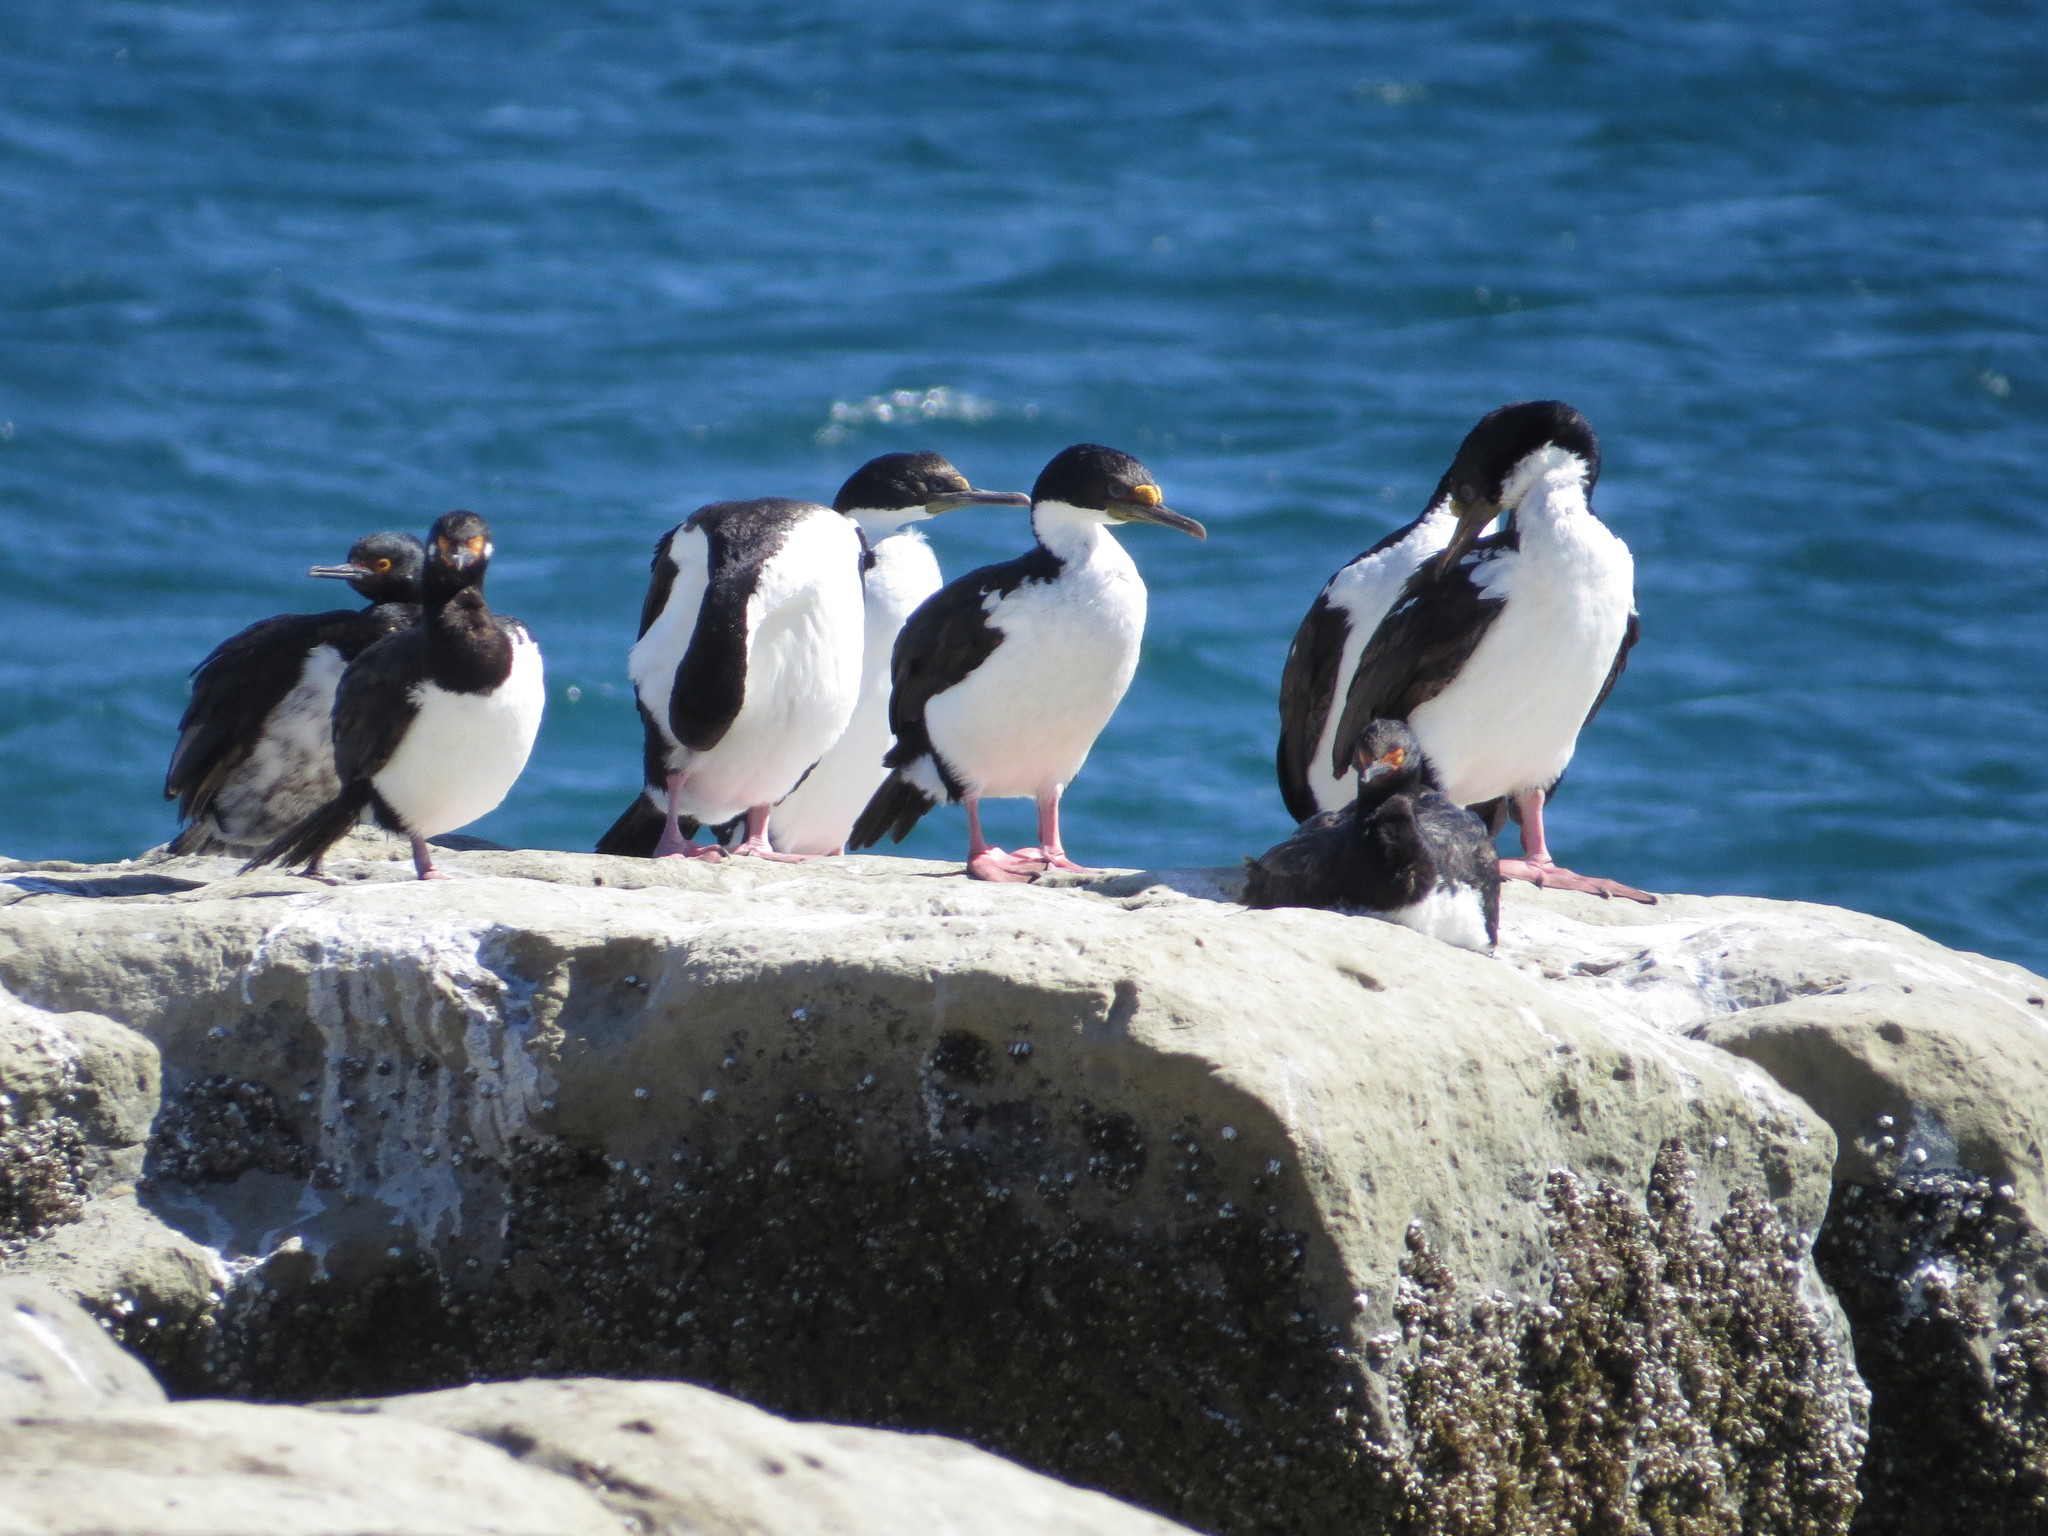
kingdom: Animalia
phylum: Chordata
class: Aves
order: Suliformes
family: Phalacrocoracidae
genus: Phalacrocorax
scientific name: Phalacrocorax magellanicus
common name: Rock shag
